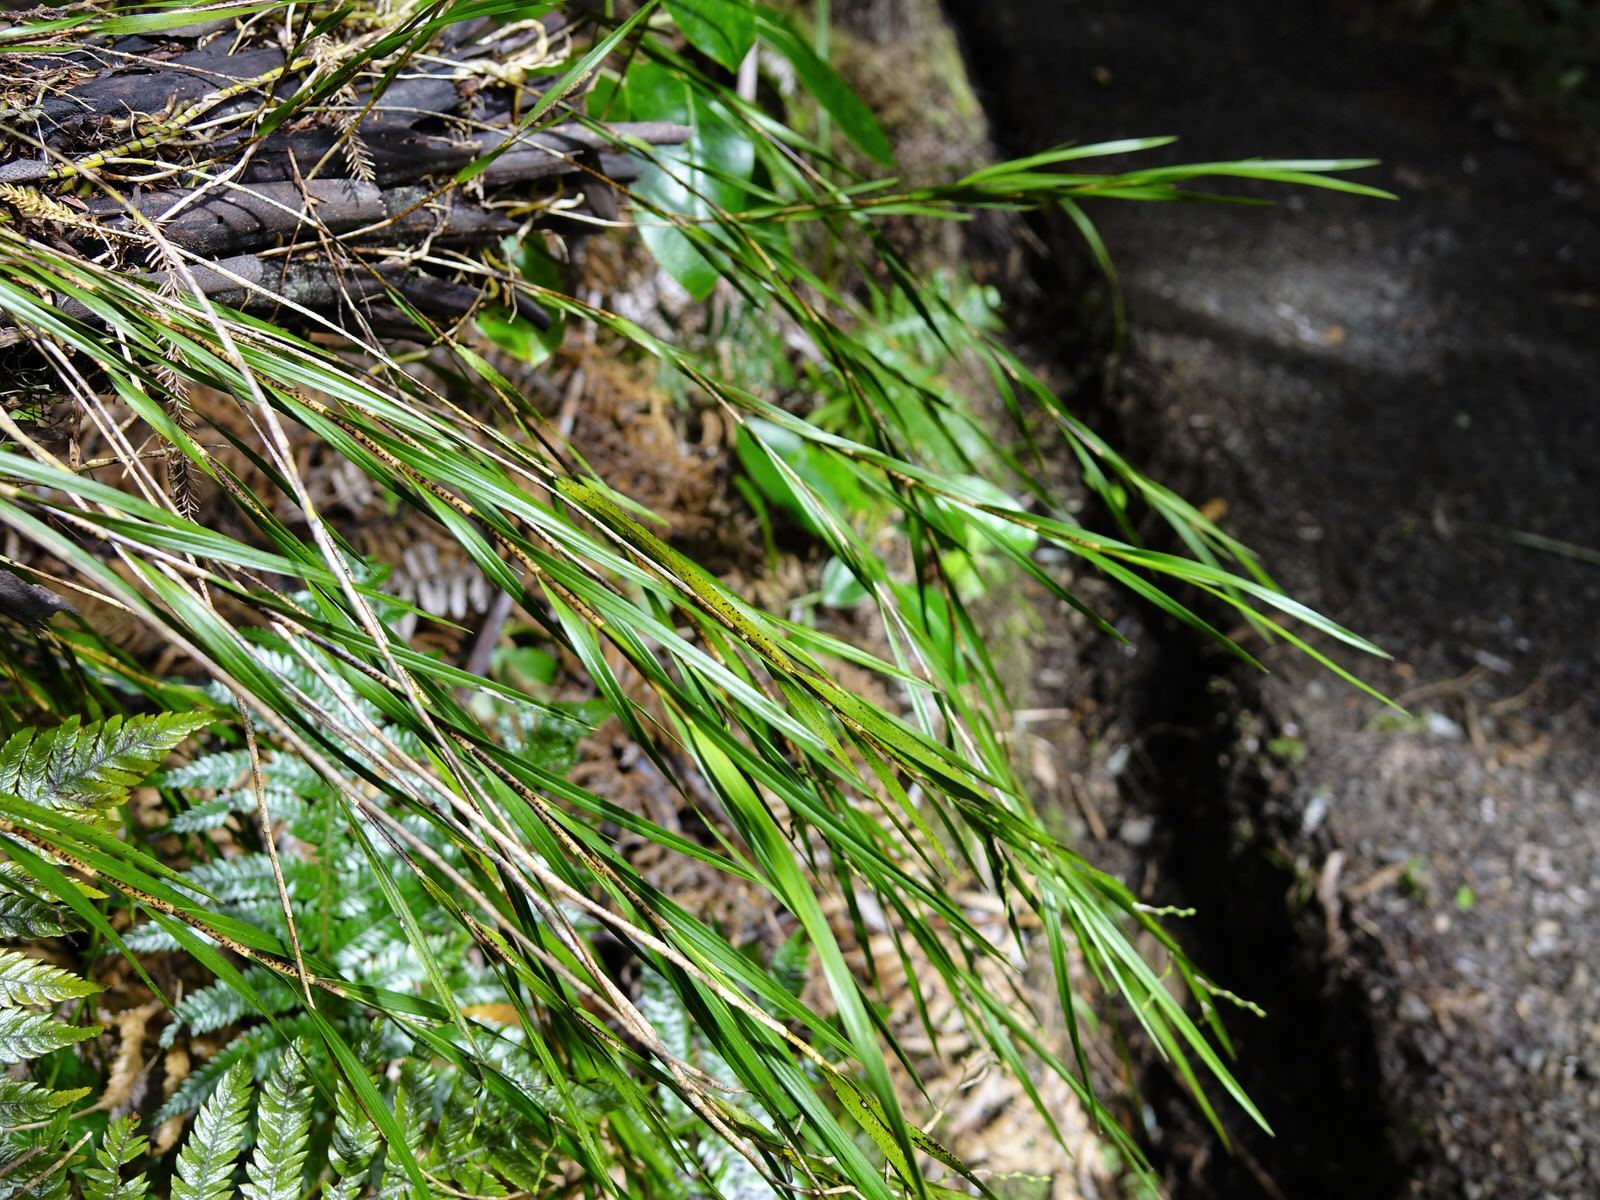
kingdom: Plantae
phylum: Tracheophyta
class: Liliopsida
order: Asparagales
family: Orchidaceae
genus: Earina
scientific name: Earina mucronata
